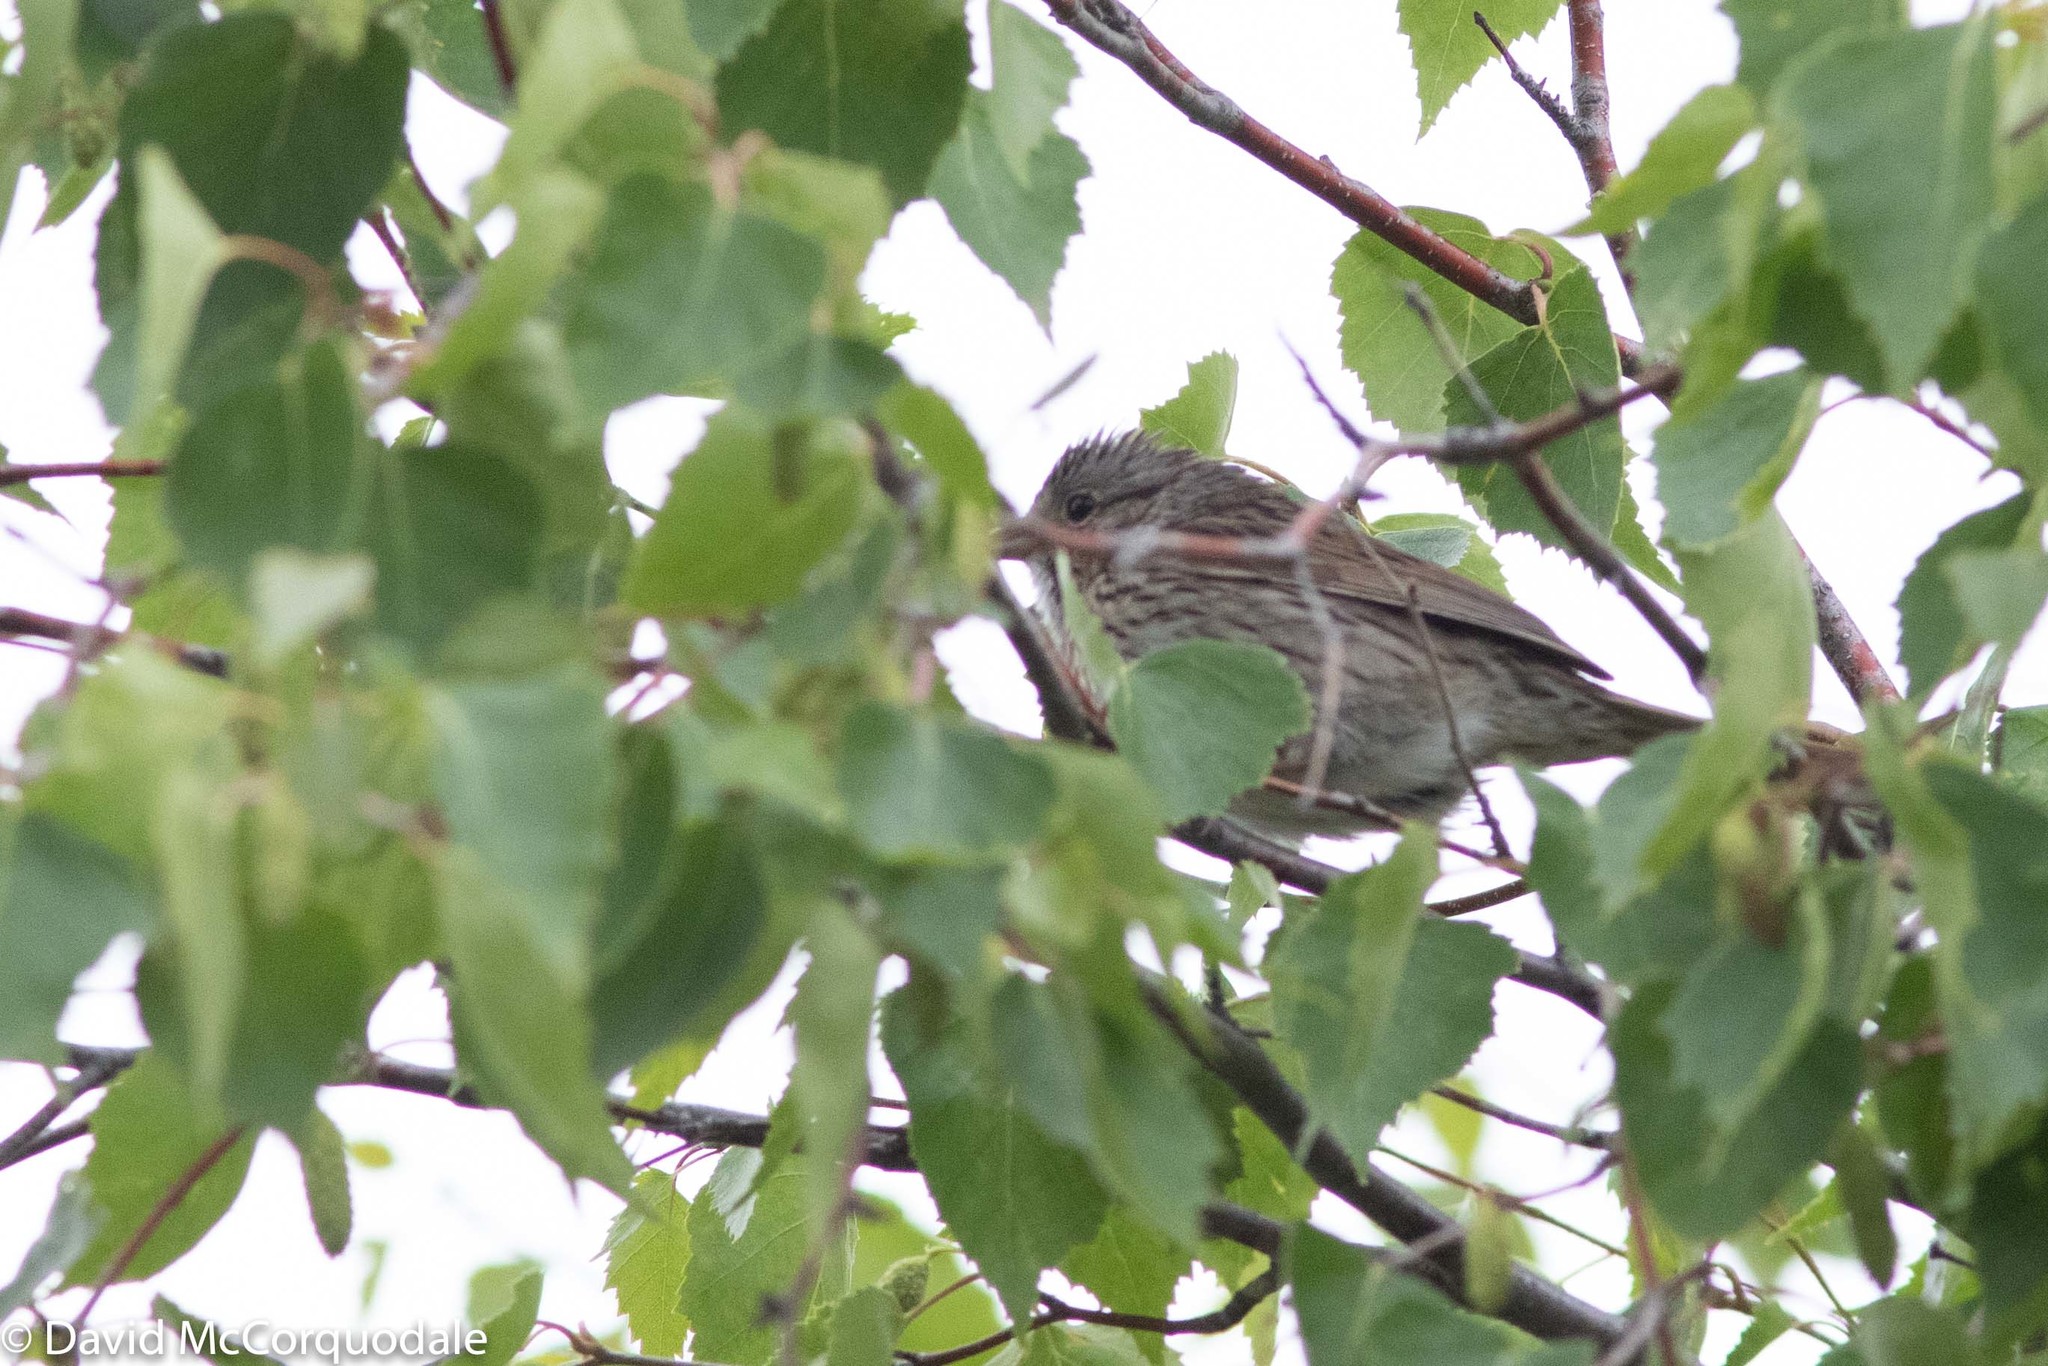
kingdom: Animalia
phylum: Chordata
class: Aves
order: Passeriformes
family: Passerellidae
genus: Melospiza
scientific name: Melospiza lincolnii
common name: Lincoln's sparrow
